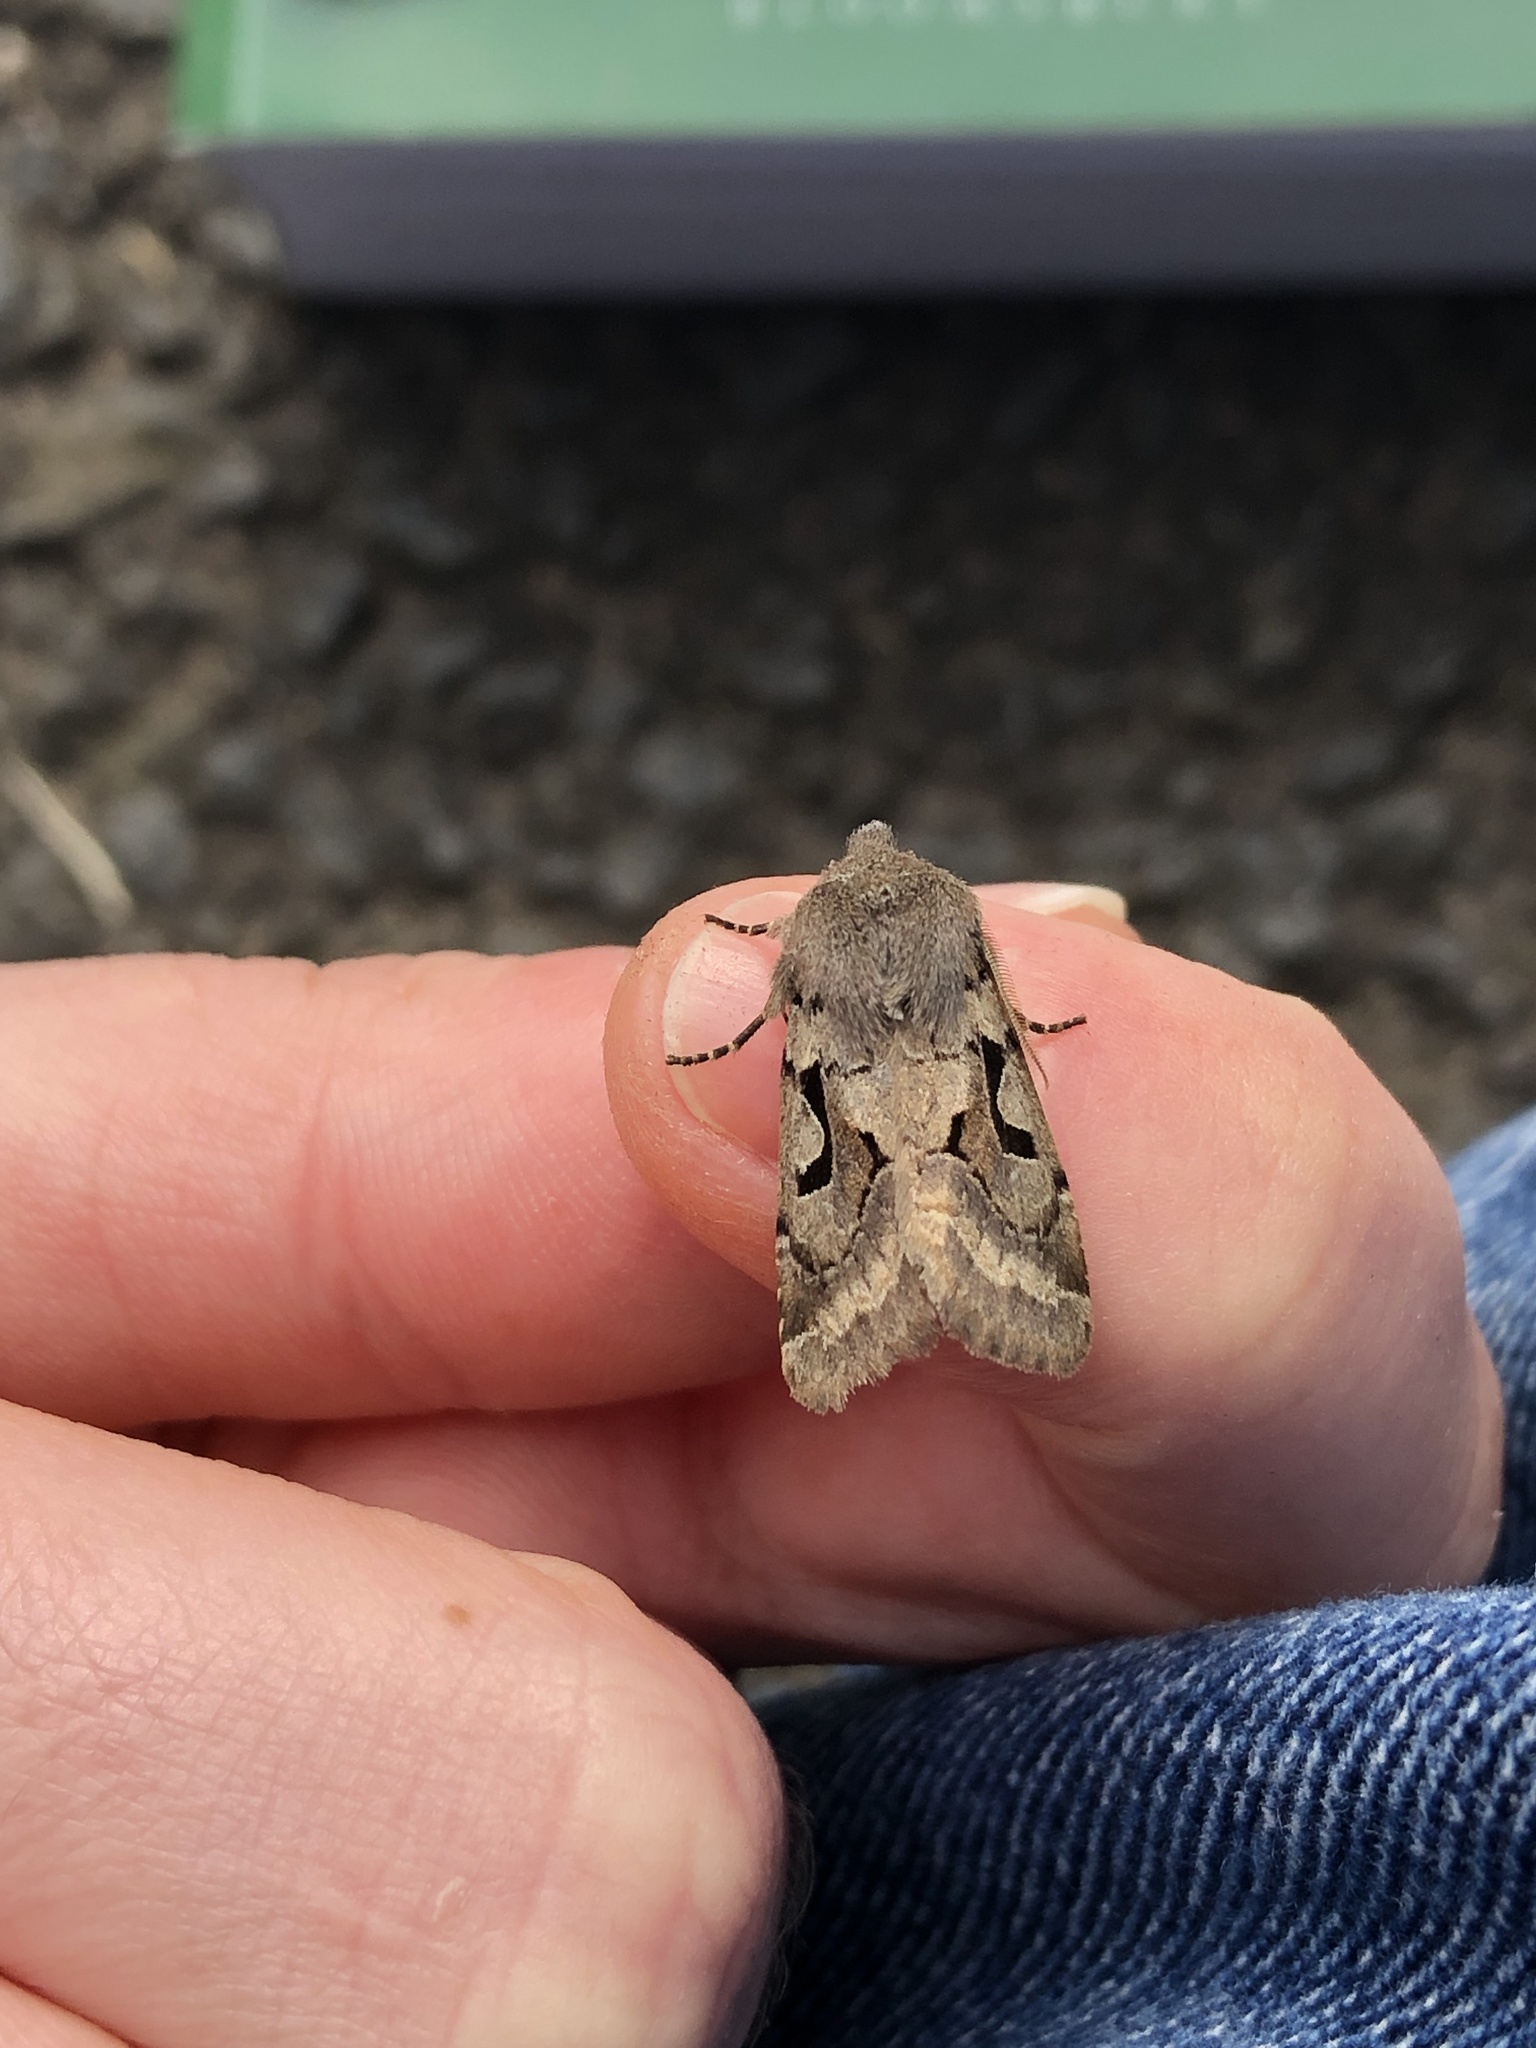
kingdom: Animalia
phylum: Arthropoda
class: Insecta
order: Lepidoptera
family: Noctuidae
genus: Orthosia
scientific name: Orthosia gothica
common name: Hebrew character
